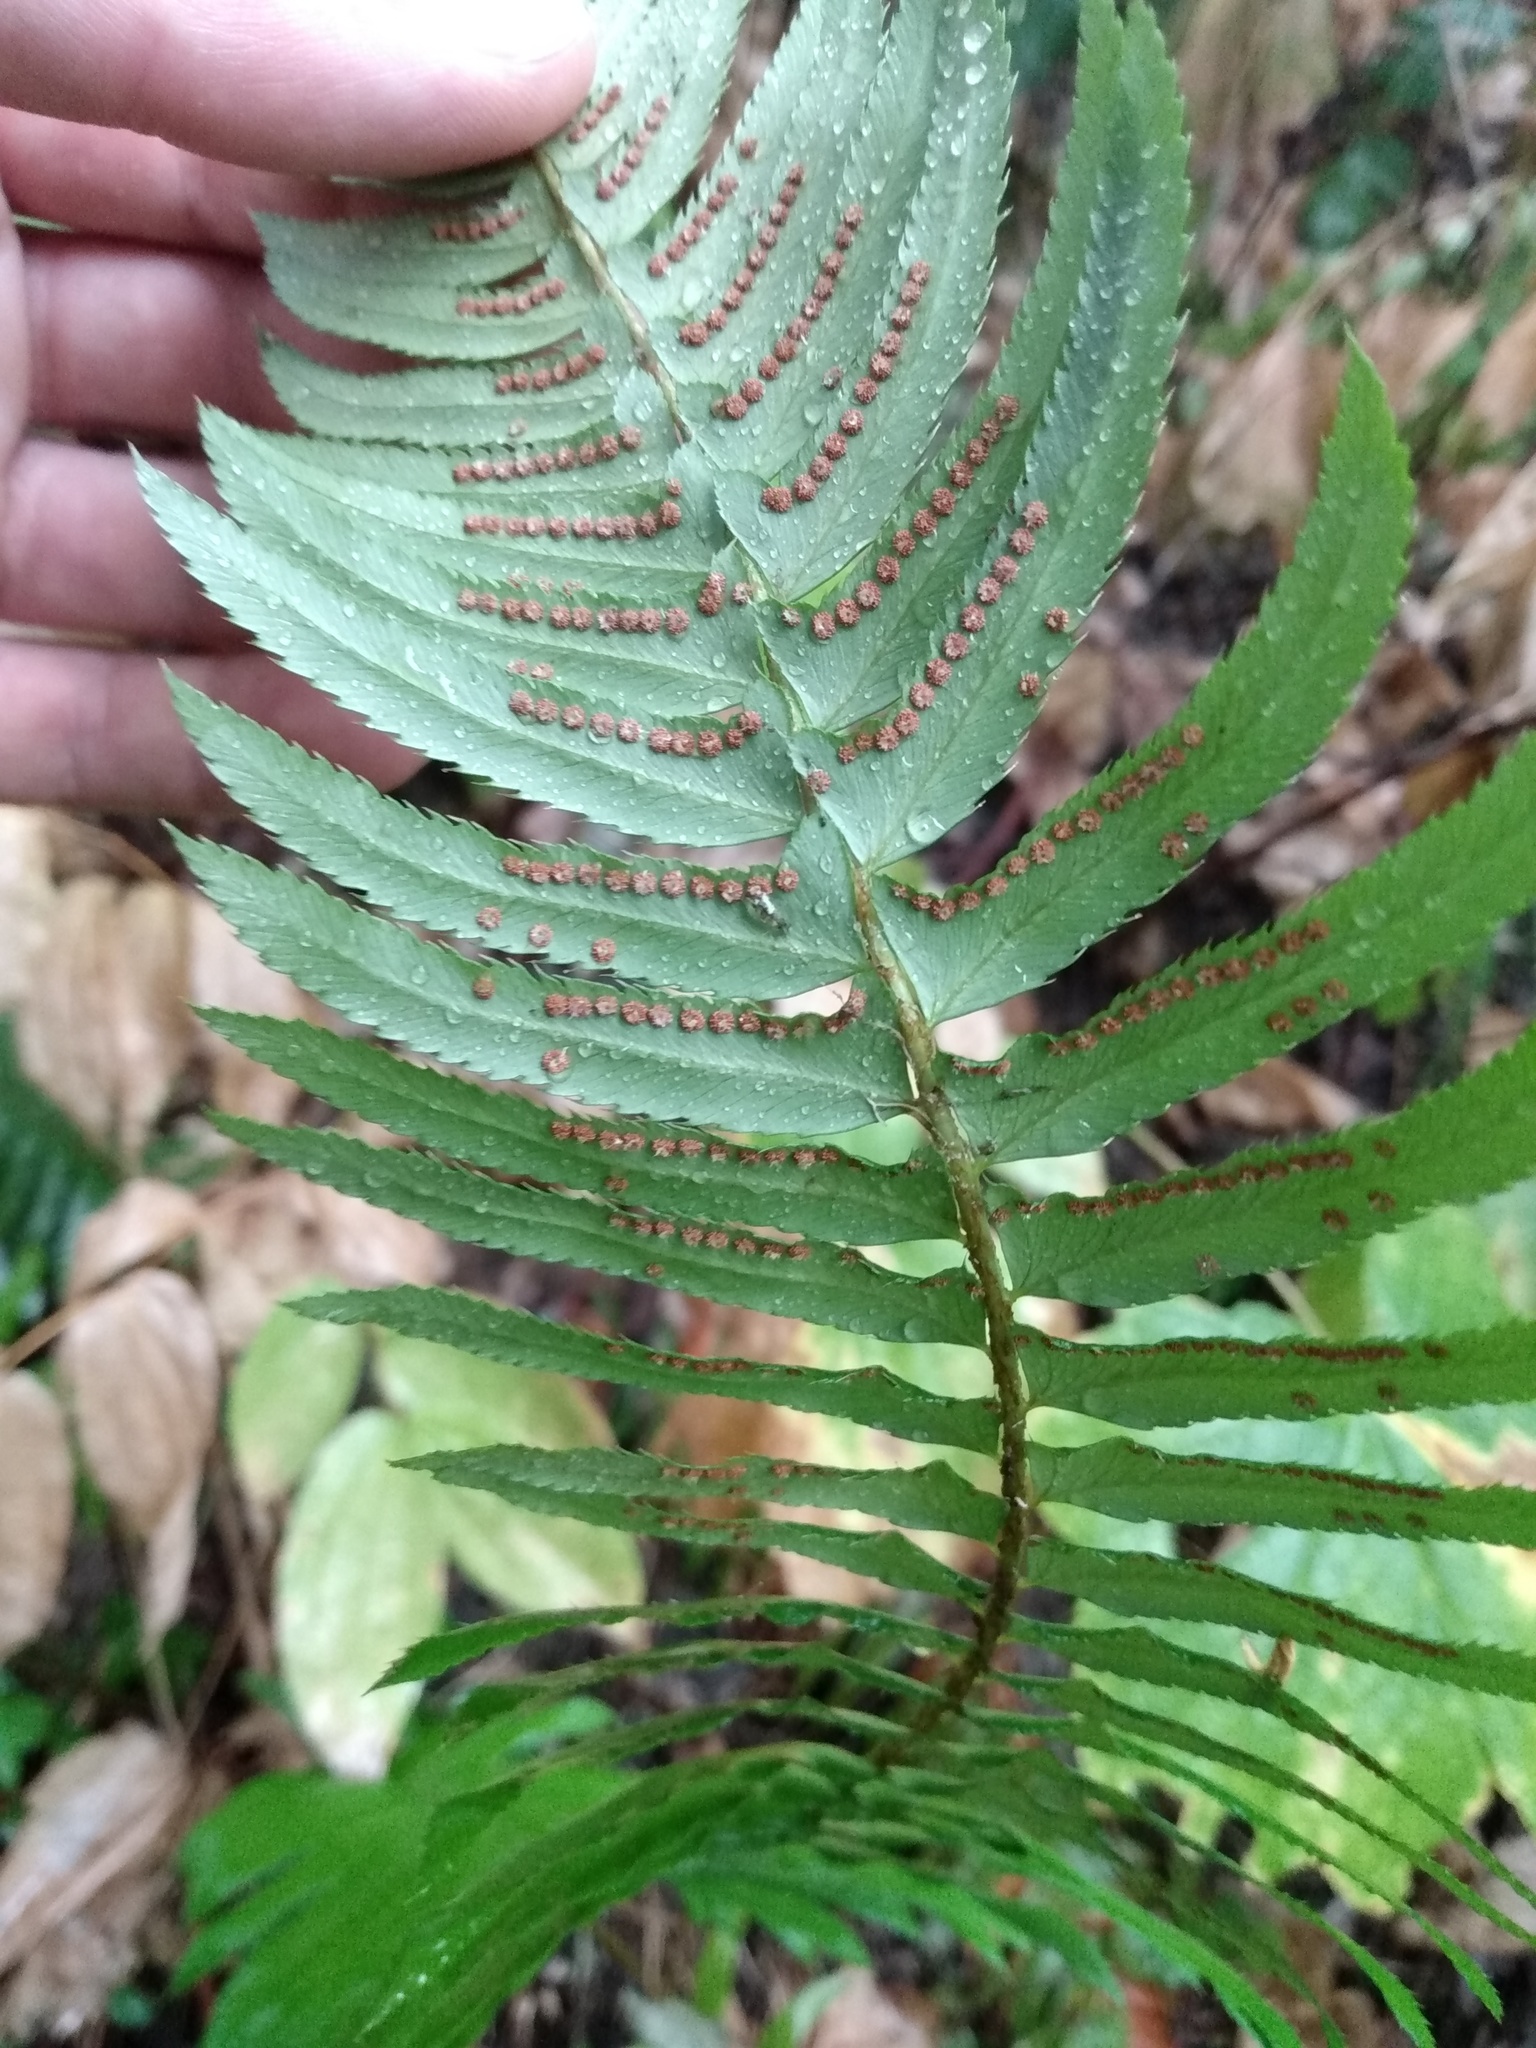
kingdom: Plantae
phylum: Tracheophyta
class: Polypodiopsida
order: Polypodiales
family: Dryopteridaceae
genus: Polystichum
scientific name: Polystichum munitum
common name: Western sword-fern
